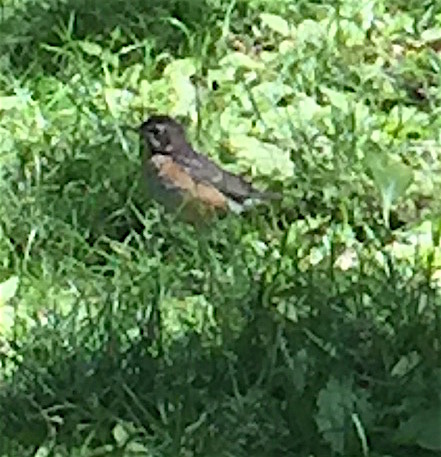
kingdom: Animalia
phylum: Chordata
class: Aves
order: Passeriformes
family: Turdidae
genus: Turdus
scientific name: Turdus migratorius
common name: American robin
